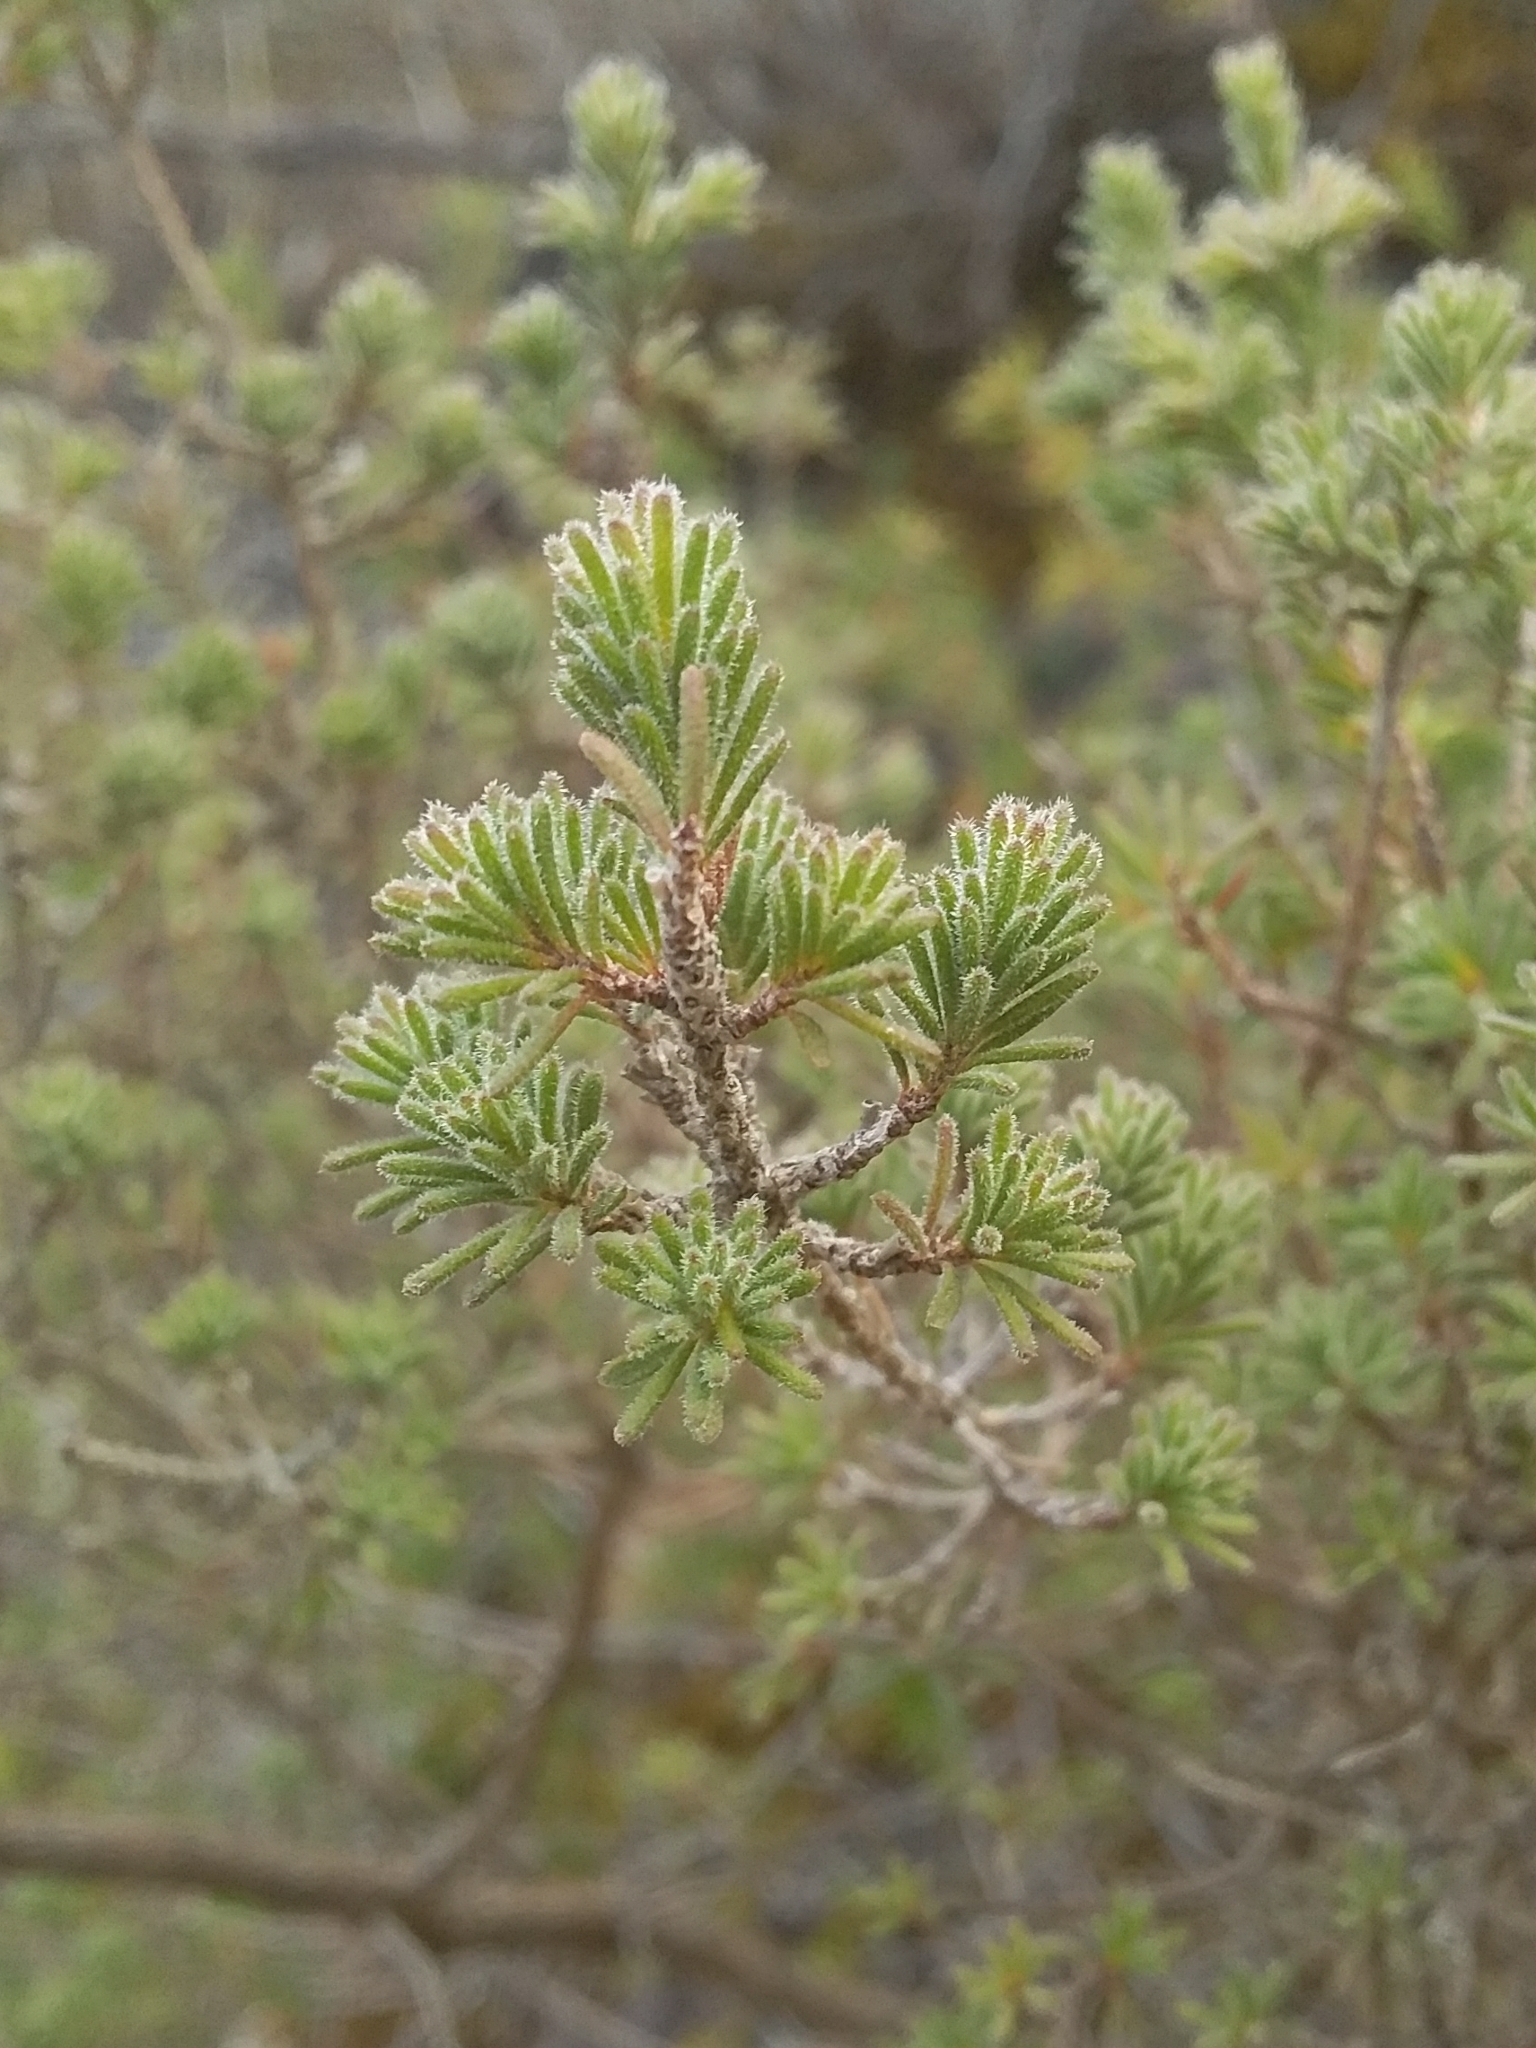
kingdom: Plantae
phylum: Tracheophyta
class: Magnoliopsida
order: Myrtales
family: Myrtaceae
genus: Calytrix
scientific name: Calytrix tetragona
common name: Common fringe myrtle
